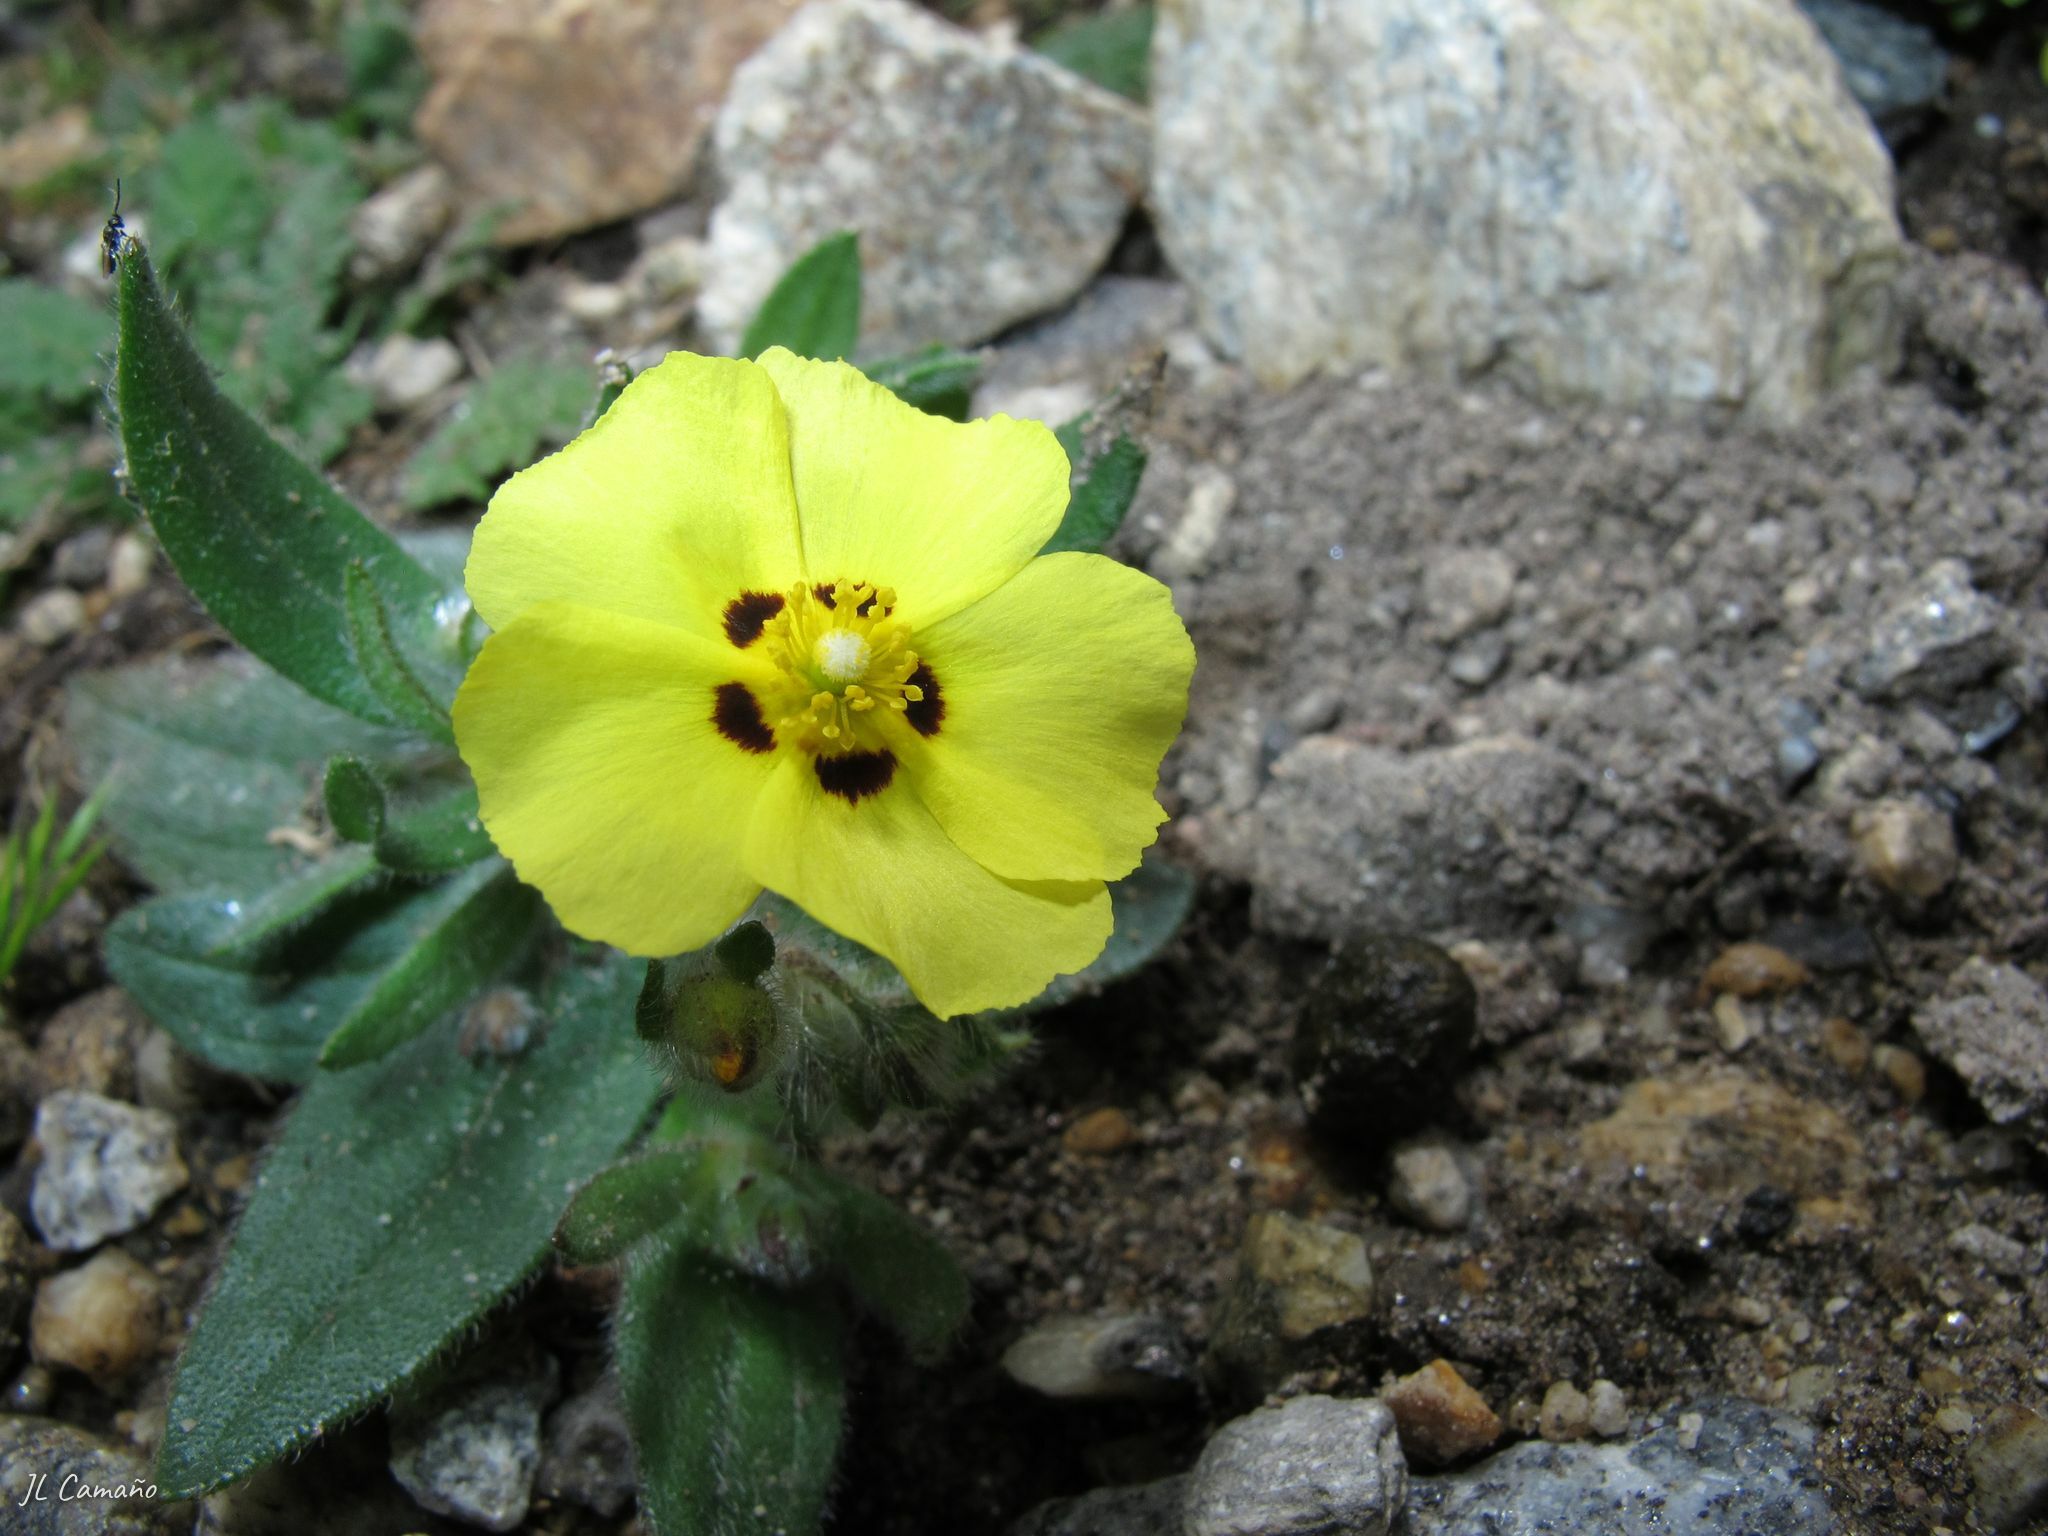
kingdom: Plantae
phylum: Tracheophyta
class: Magnoliopsida
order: Malvales
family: Cistaceae
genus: Tuberaria
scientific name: Tuberaria guttata
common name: Spotted rock-rose
